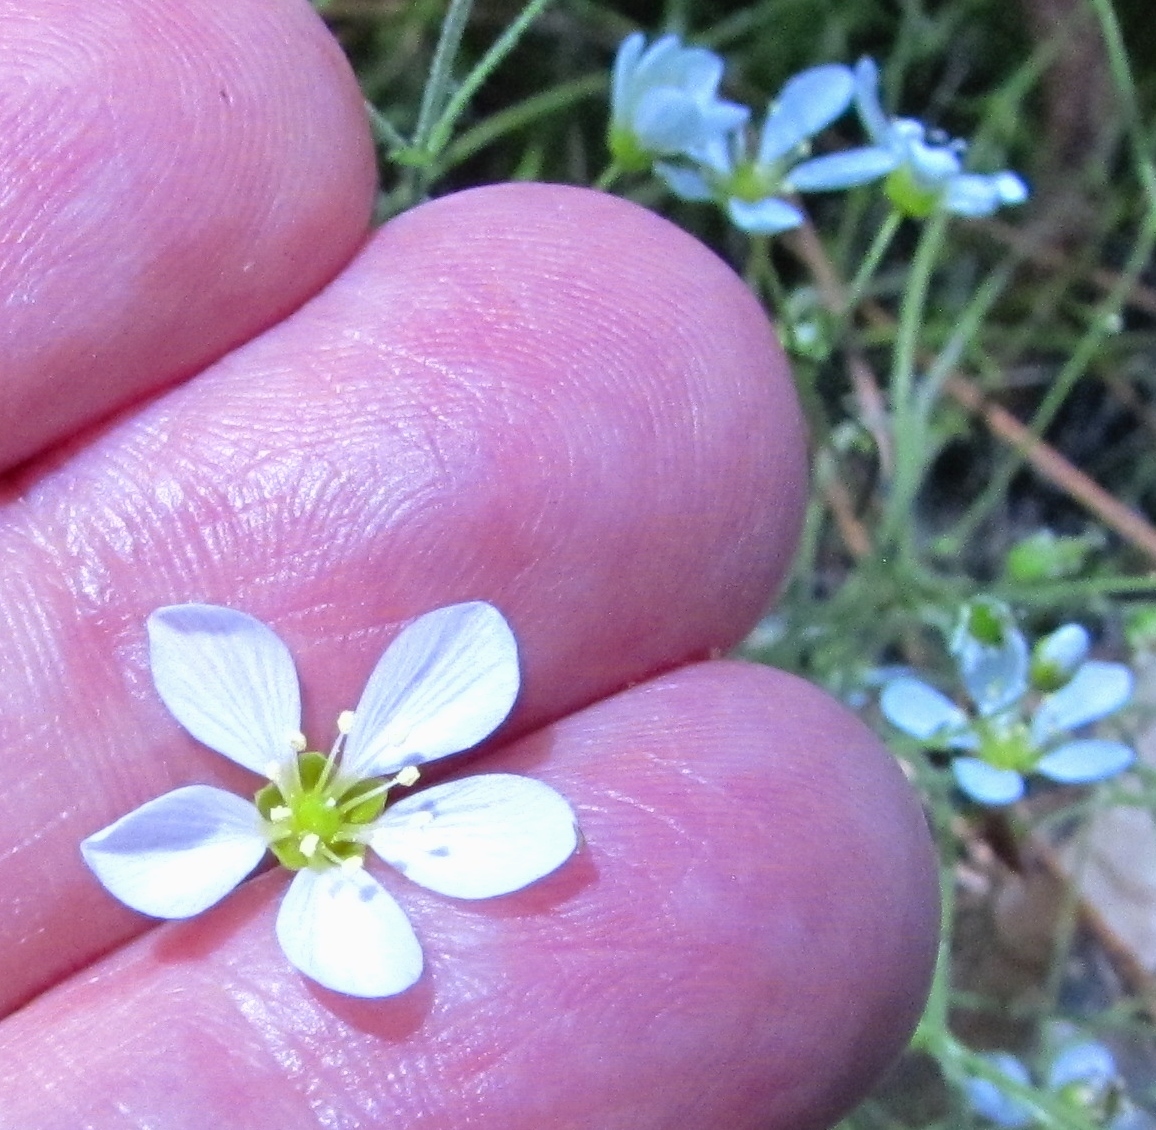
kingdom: Plantae
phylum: Tracheophyta
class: Magnoliopsida
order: Caryophyllales
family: Caryophyllaceae
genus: Geocarpon
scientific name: Geocarpon carolinianum
